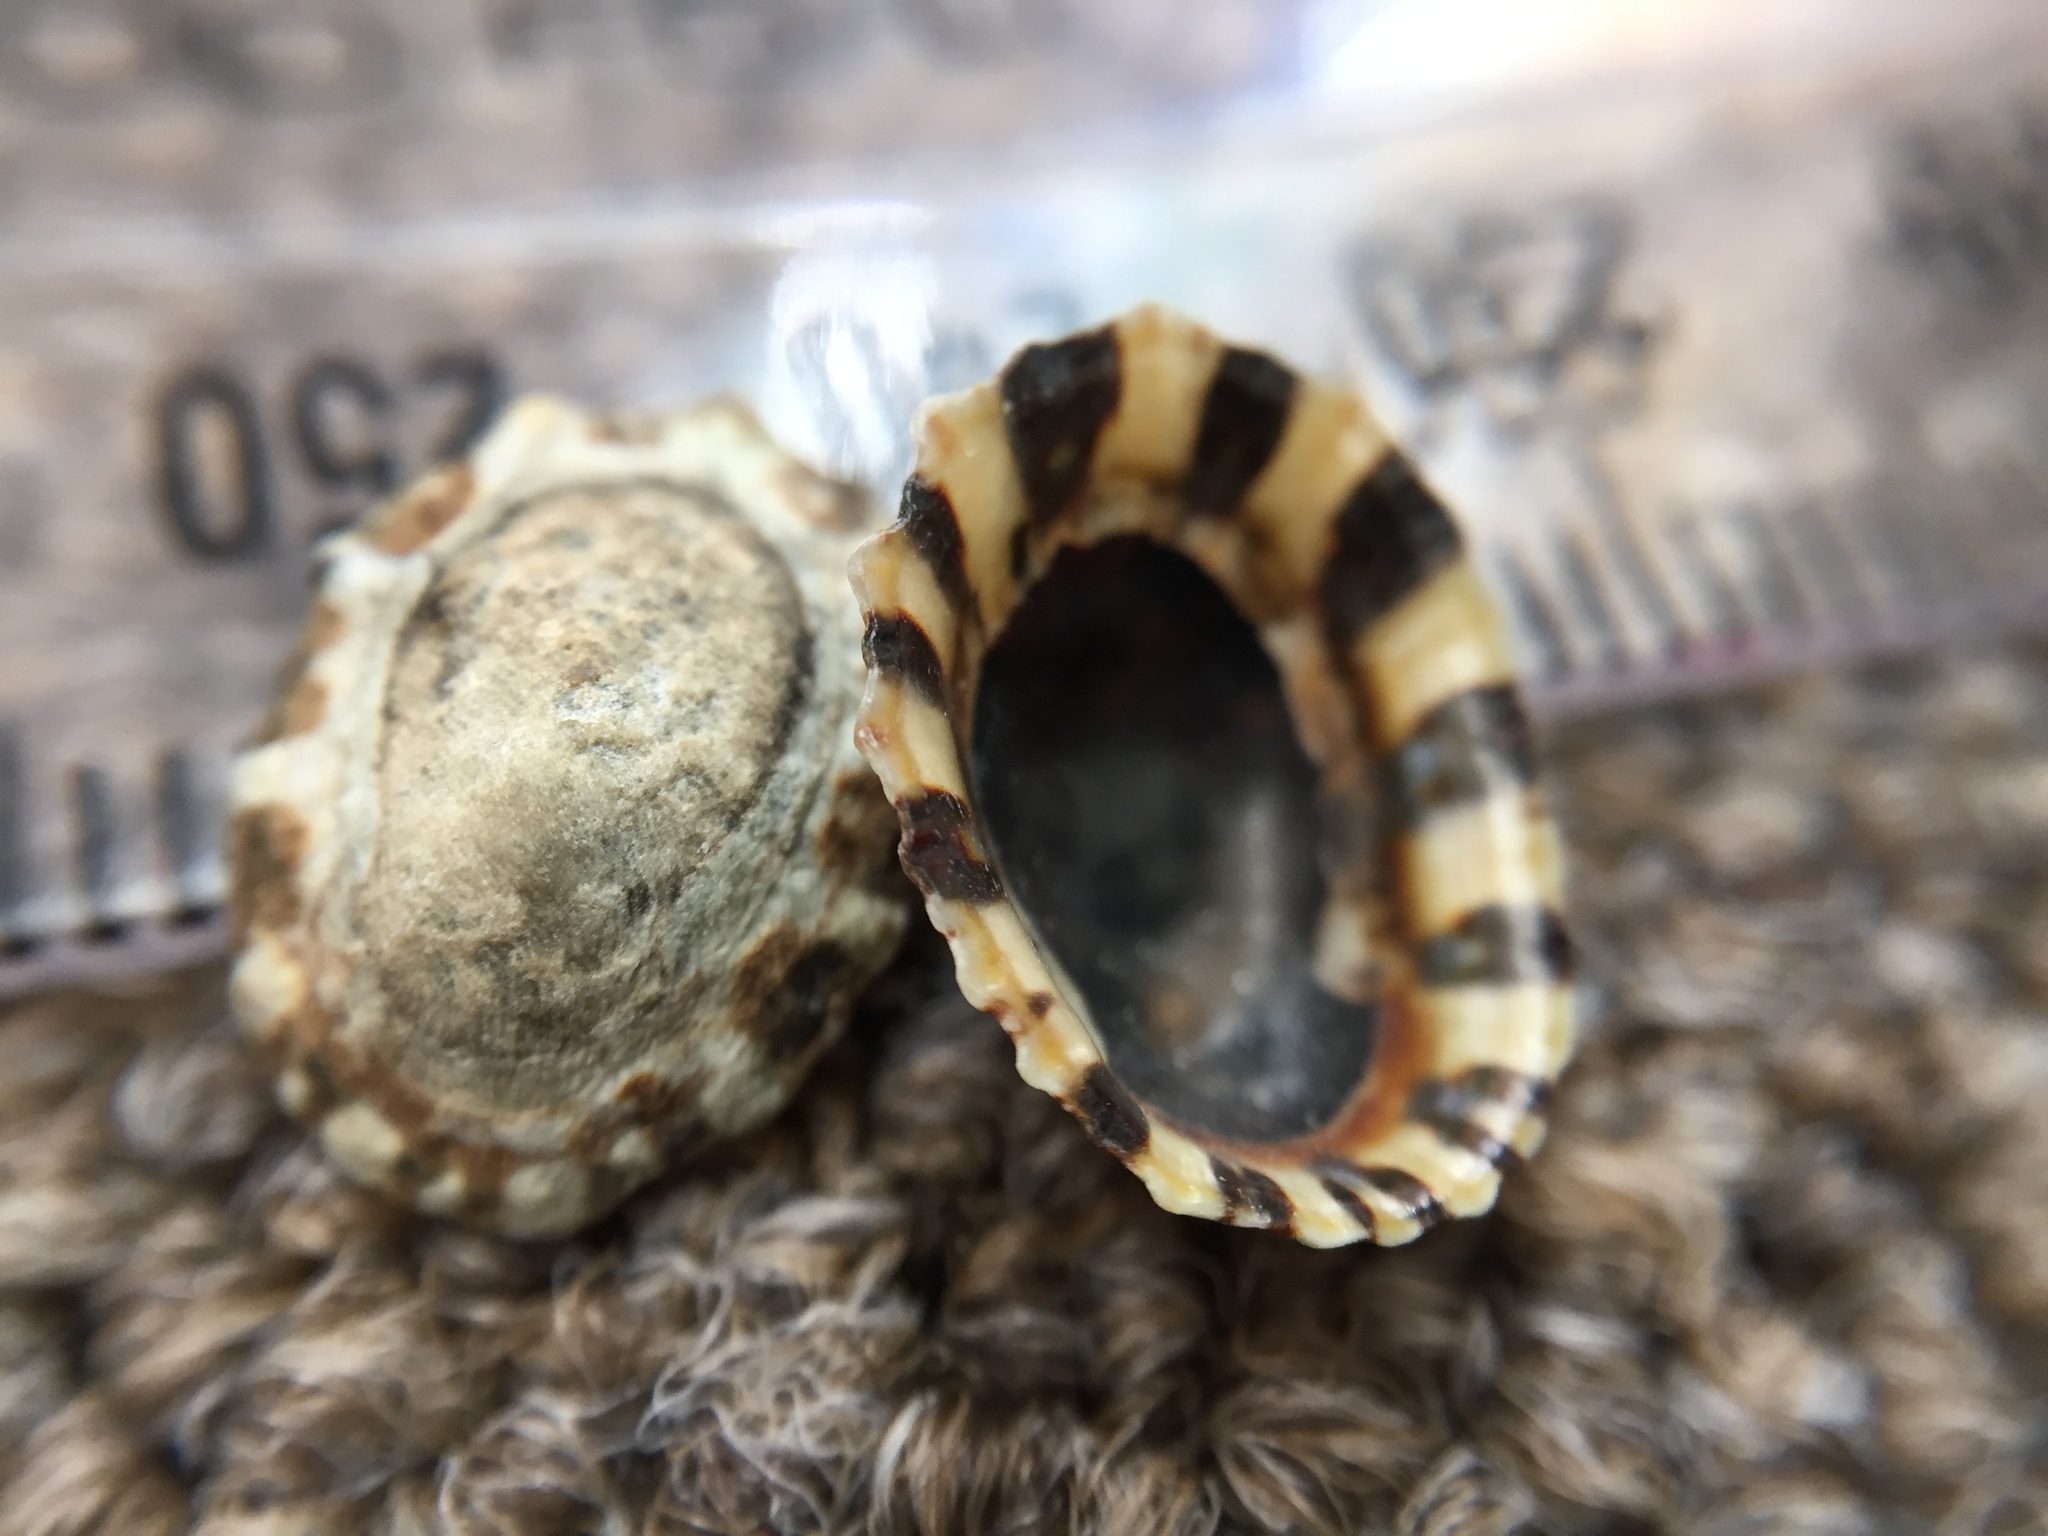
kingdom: Animalia
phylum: Mollusca
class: Gastropoda
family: Nacellidae
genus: Cellana
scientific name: Cellana ornata
